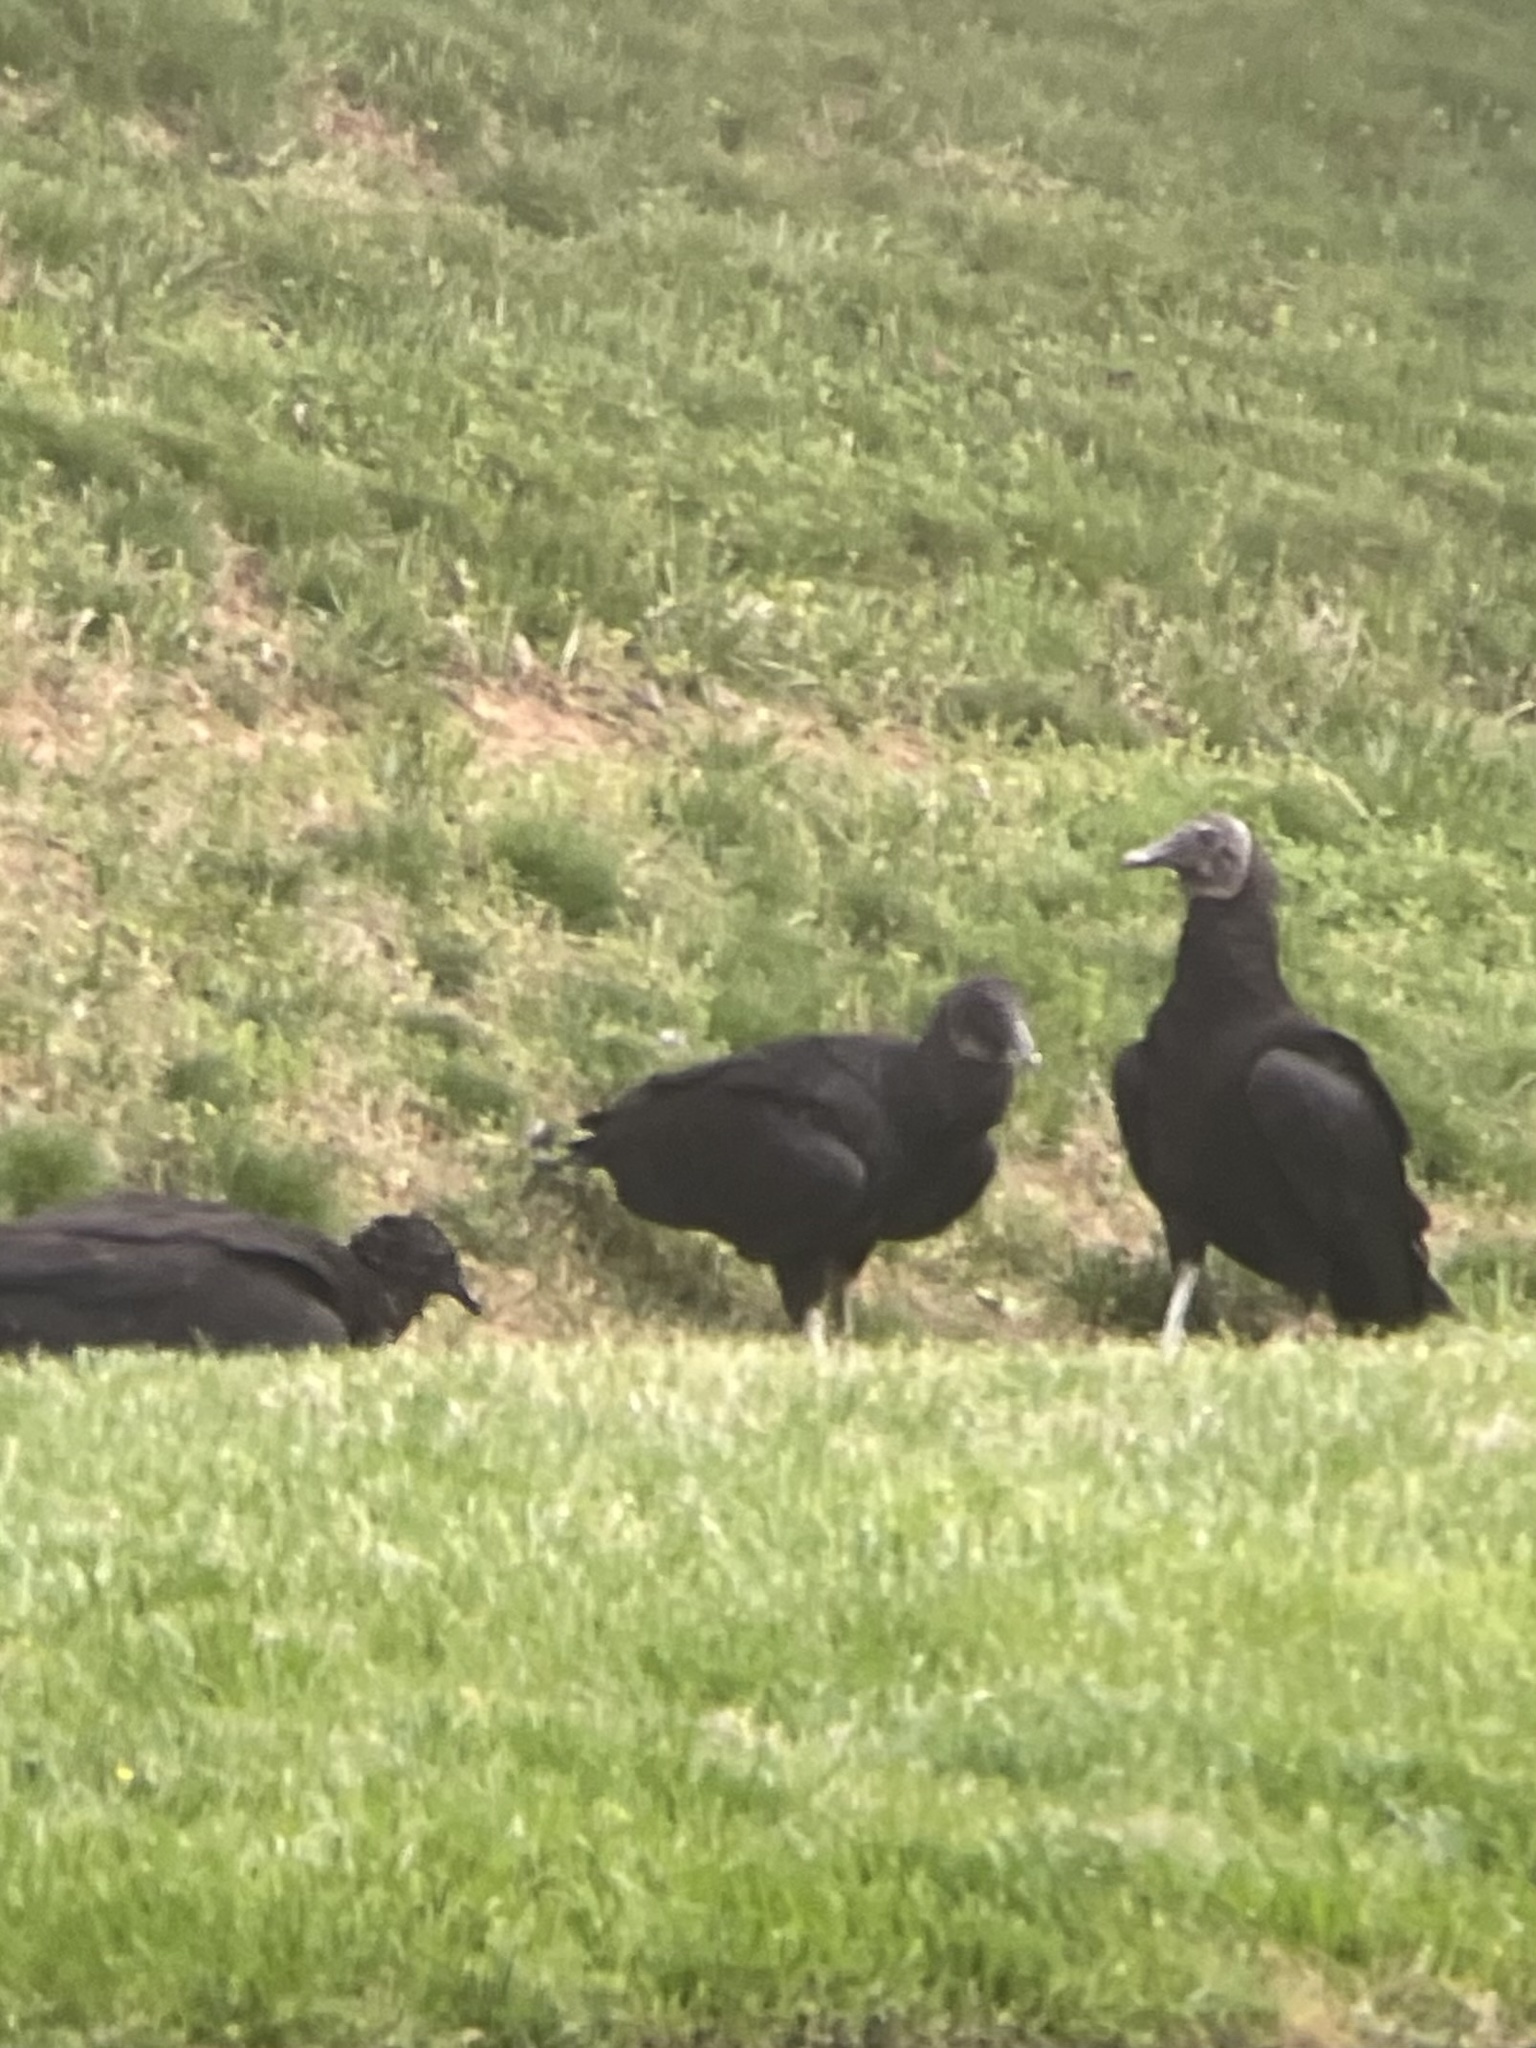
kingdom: Animalia
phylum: Chordata
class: Aves
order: Accipitriformes
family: Cathartidae
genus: Coragyps
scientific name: Coragyps atratus
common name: Black vulture
